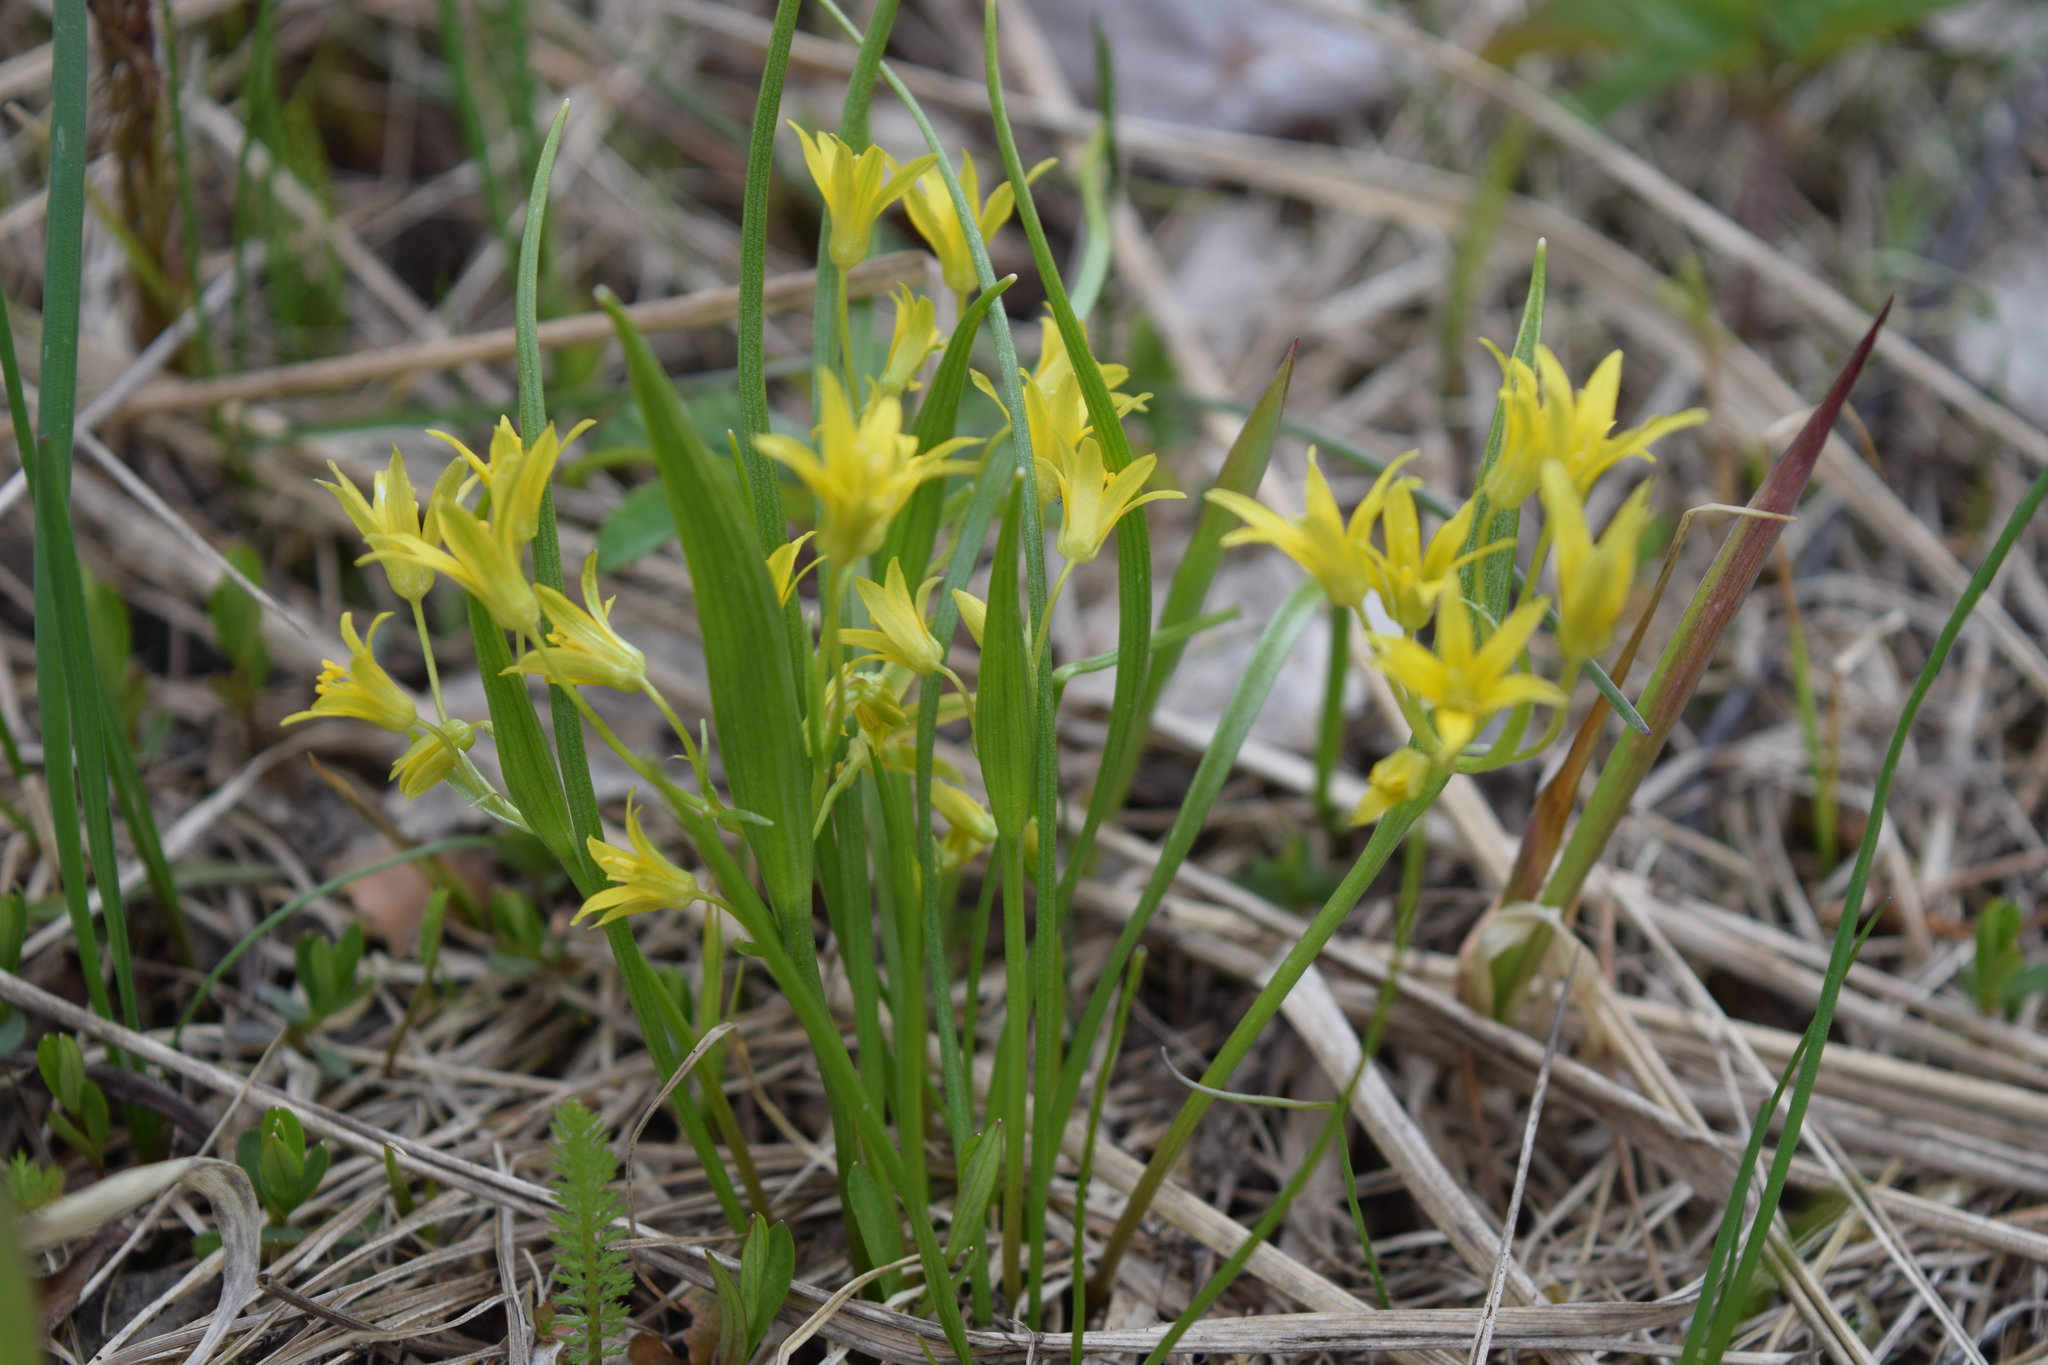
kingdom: Plantae
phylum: Tracheophyta
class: Liliopsida
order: Liliales
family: Liliaceae
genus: Gagea
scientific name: Gagea minima
